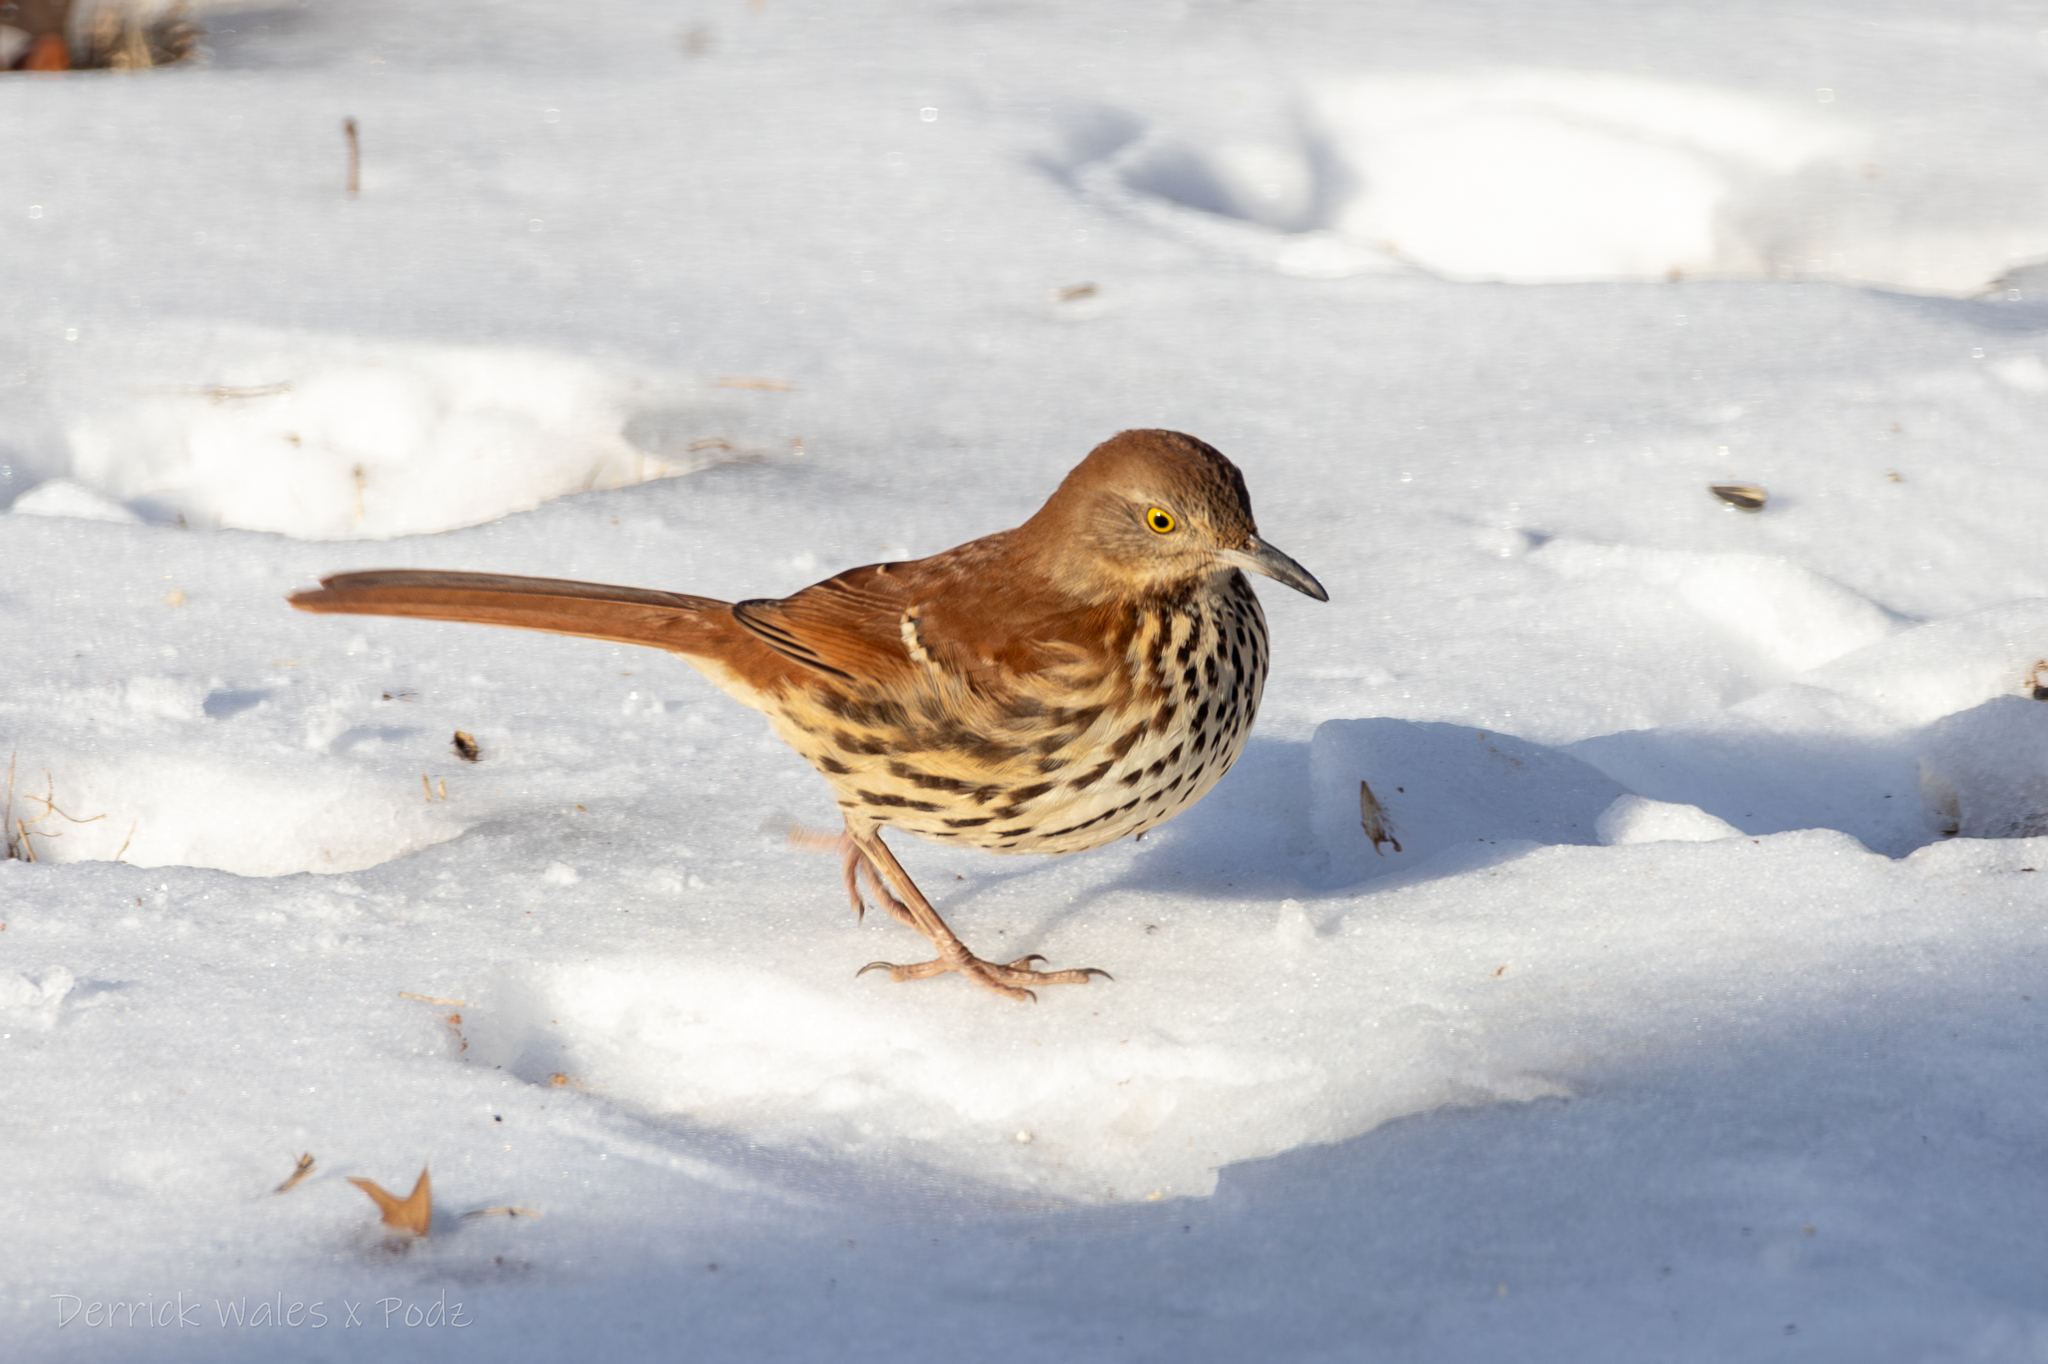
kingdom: Animalia
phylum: Chordata
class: Aves
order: Passeriformes
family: Mimidae
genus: Toxostoma
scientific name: Toxostoma rufum
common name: Brown thrasher
